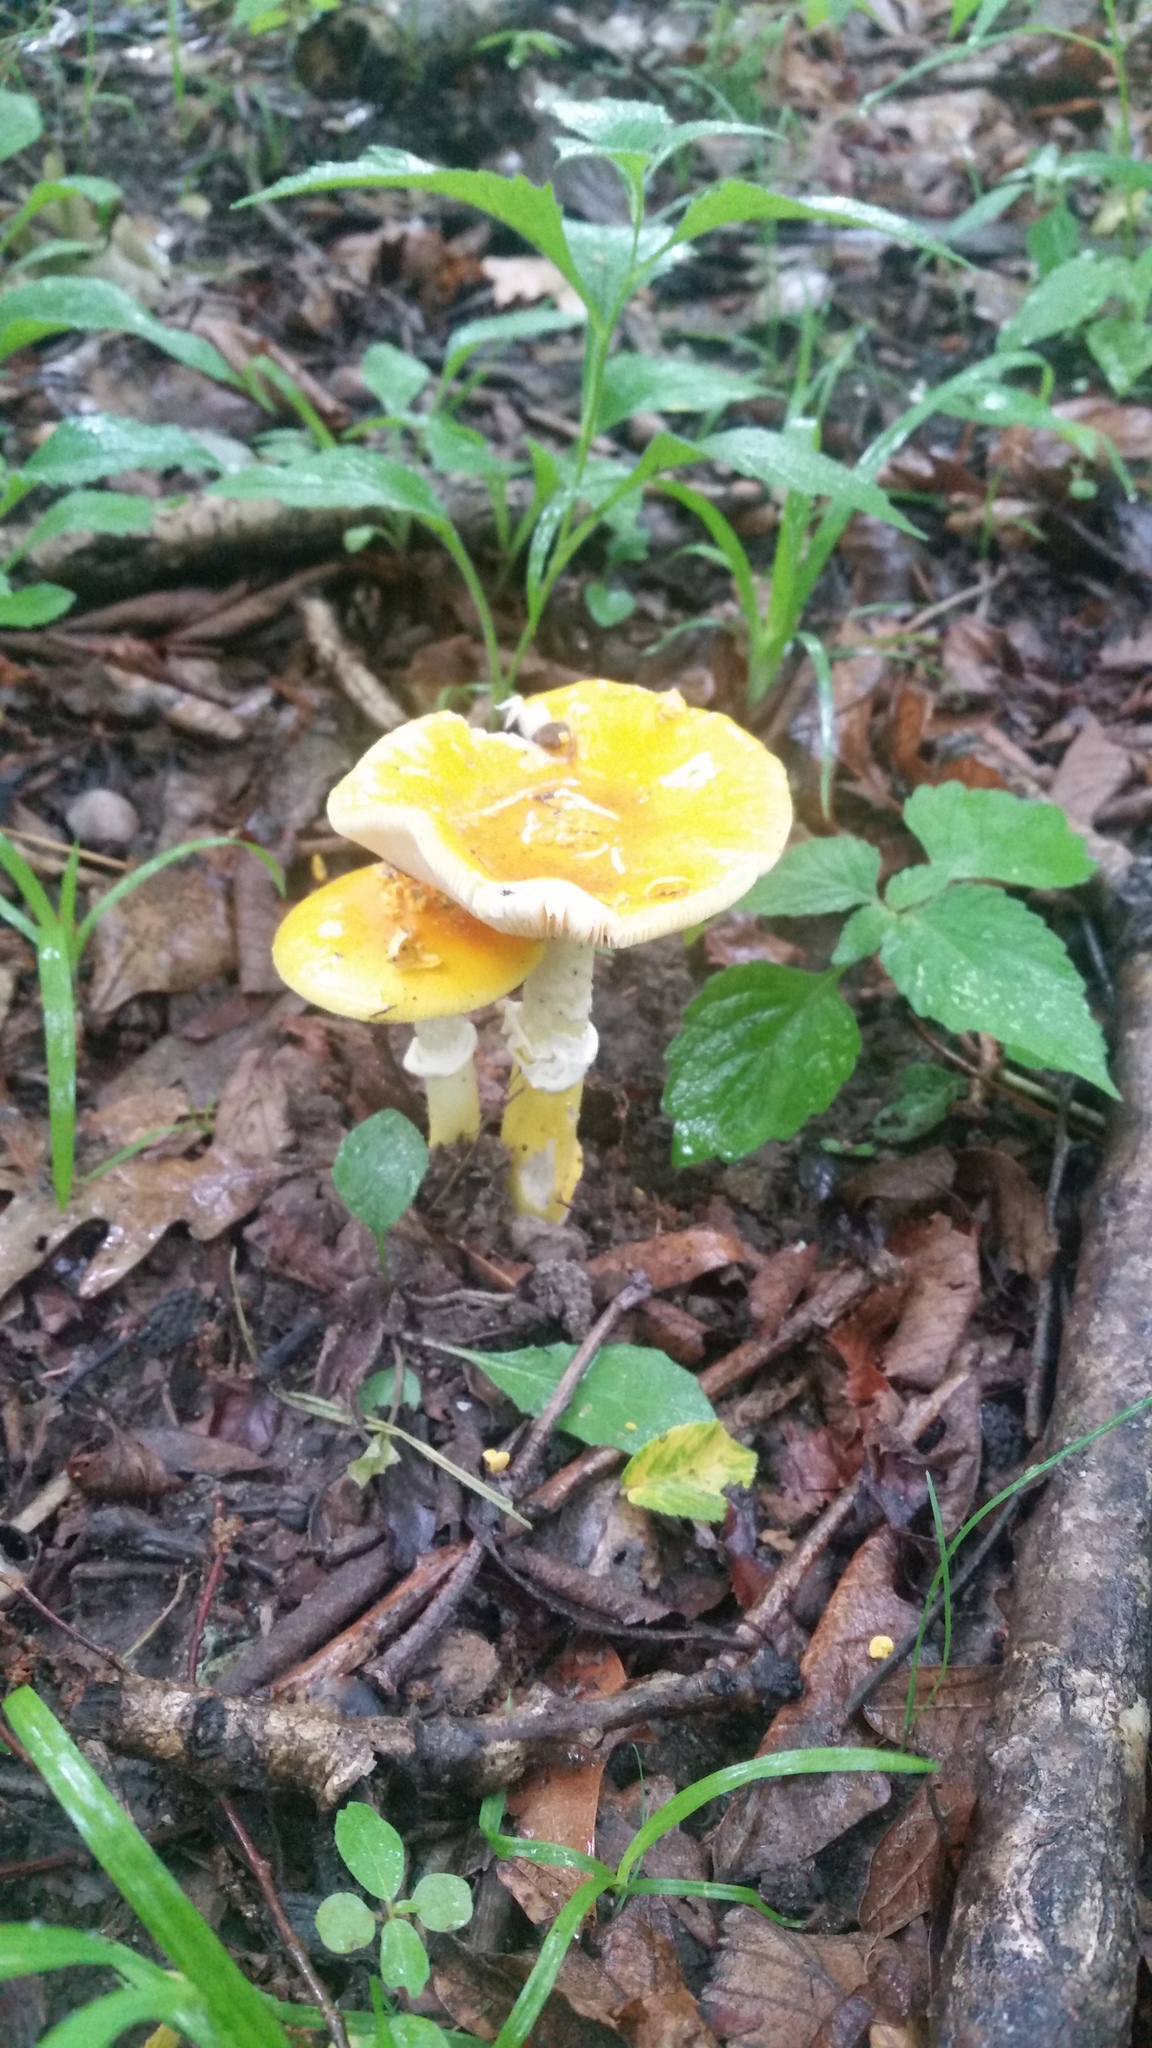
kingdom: Fungi
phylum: Basidiomycota
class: Agaricomycetes
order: Agaricales
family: Amanitaceae
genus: Amanita
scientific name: Amanita flavoconia
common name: Yellow patches
